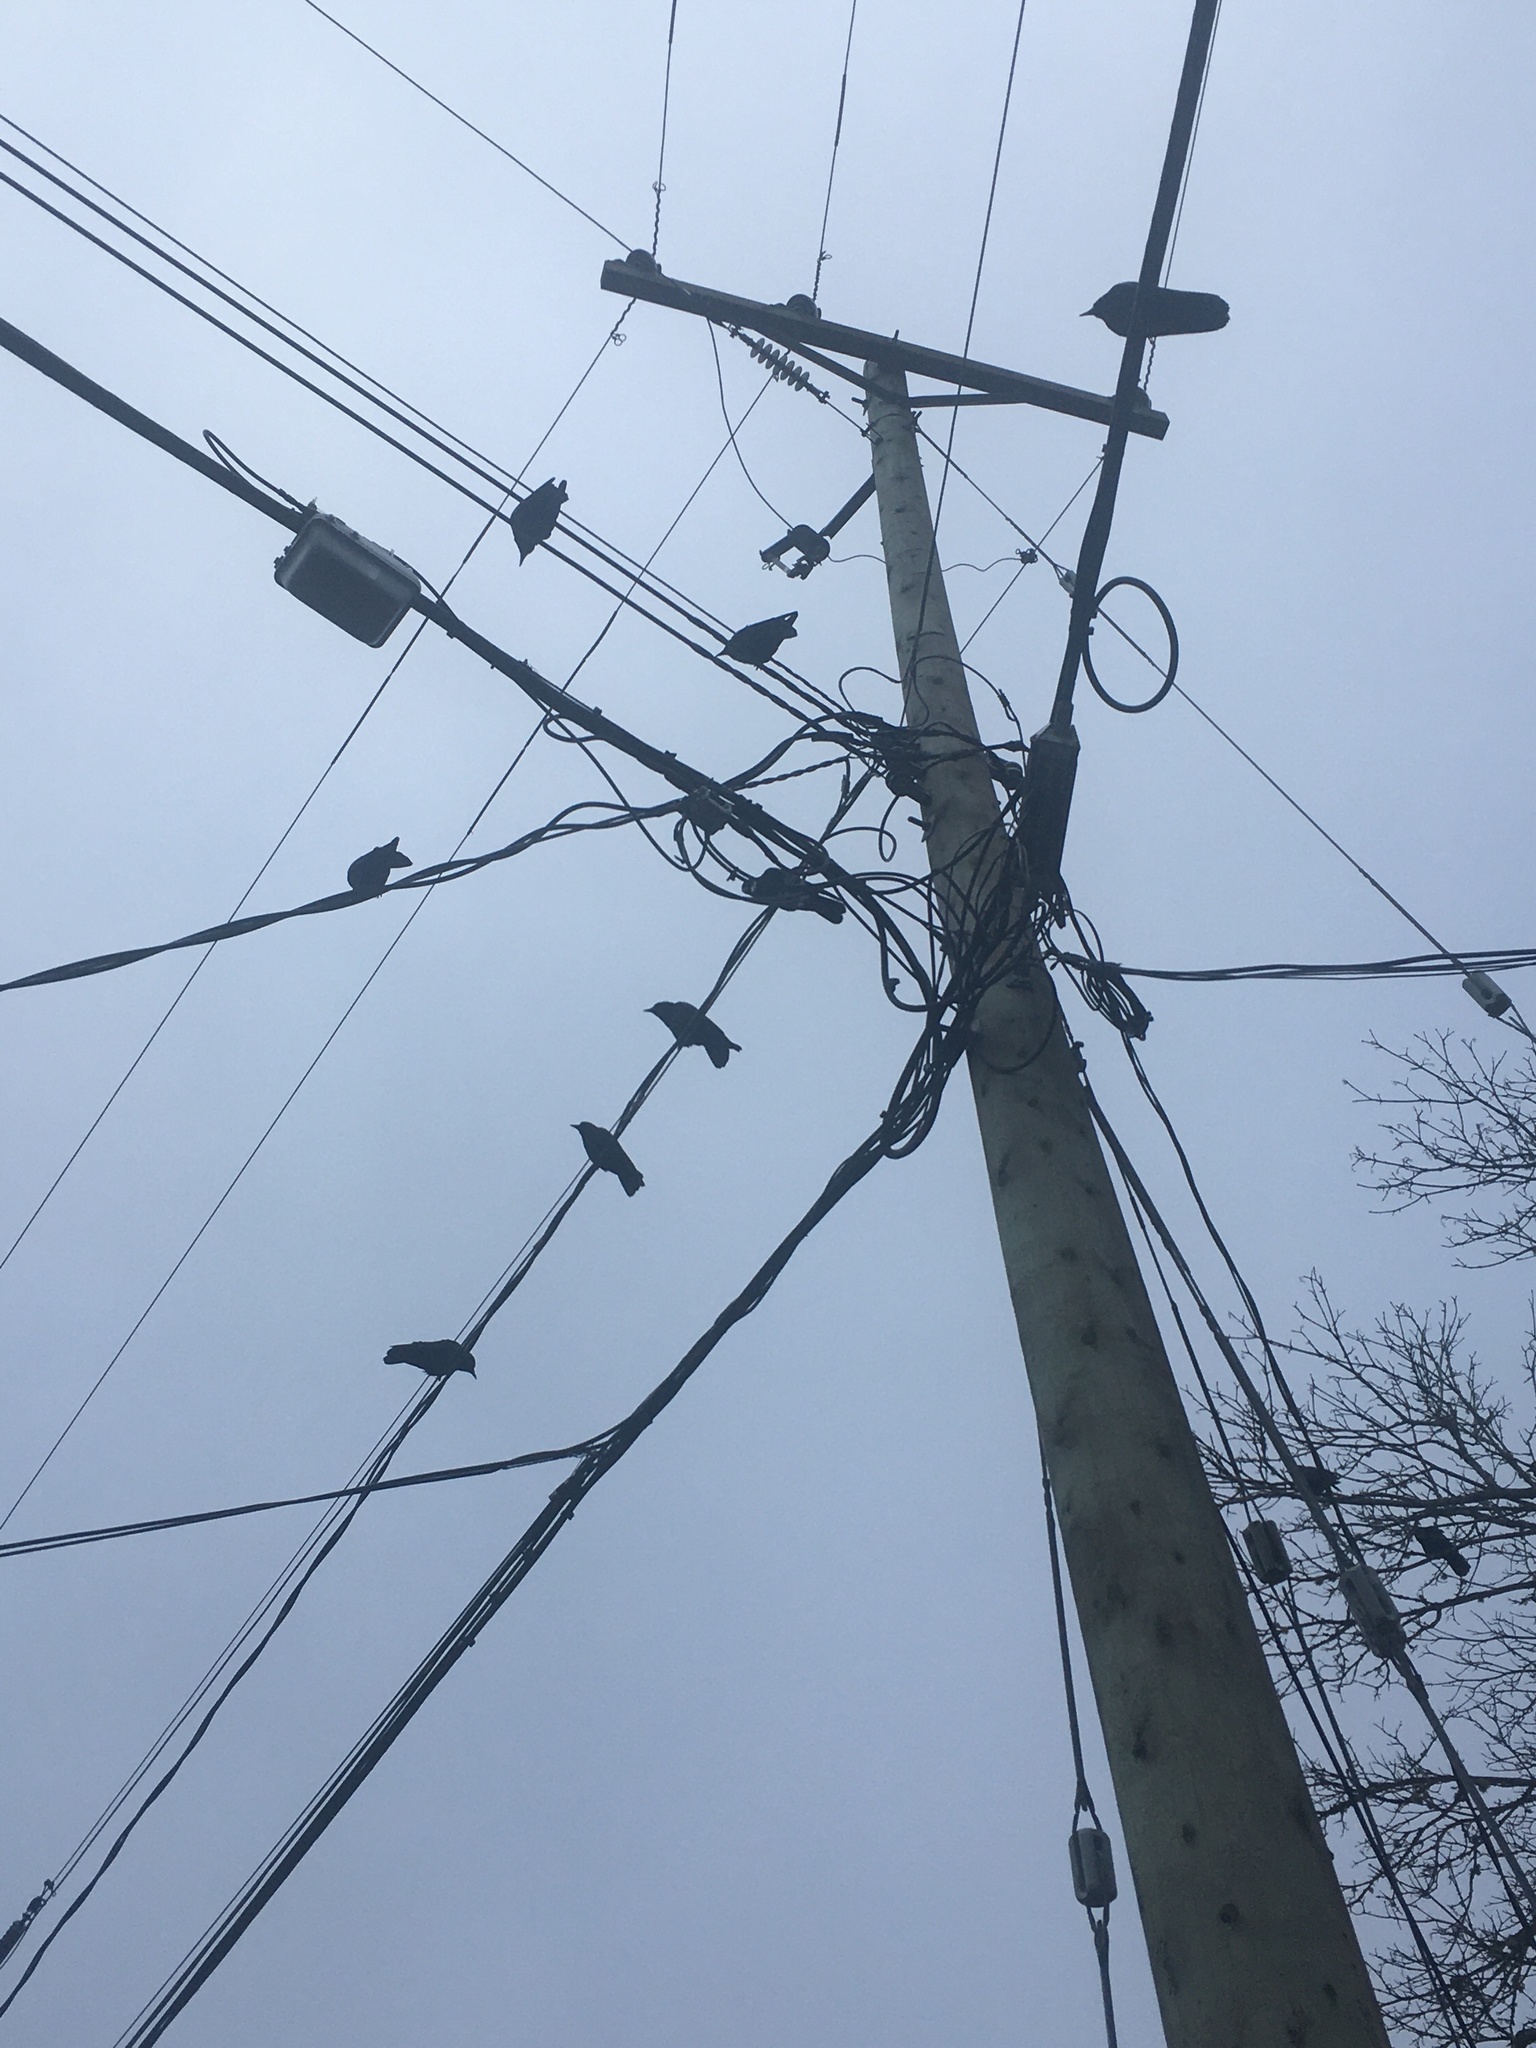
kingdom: Animalia
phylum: Chordata
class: Aves
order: Passeriformes
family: Corvidae
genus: Corvus
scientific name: Corvus brachyrhynchos
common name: American crow
